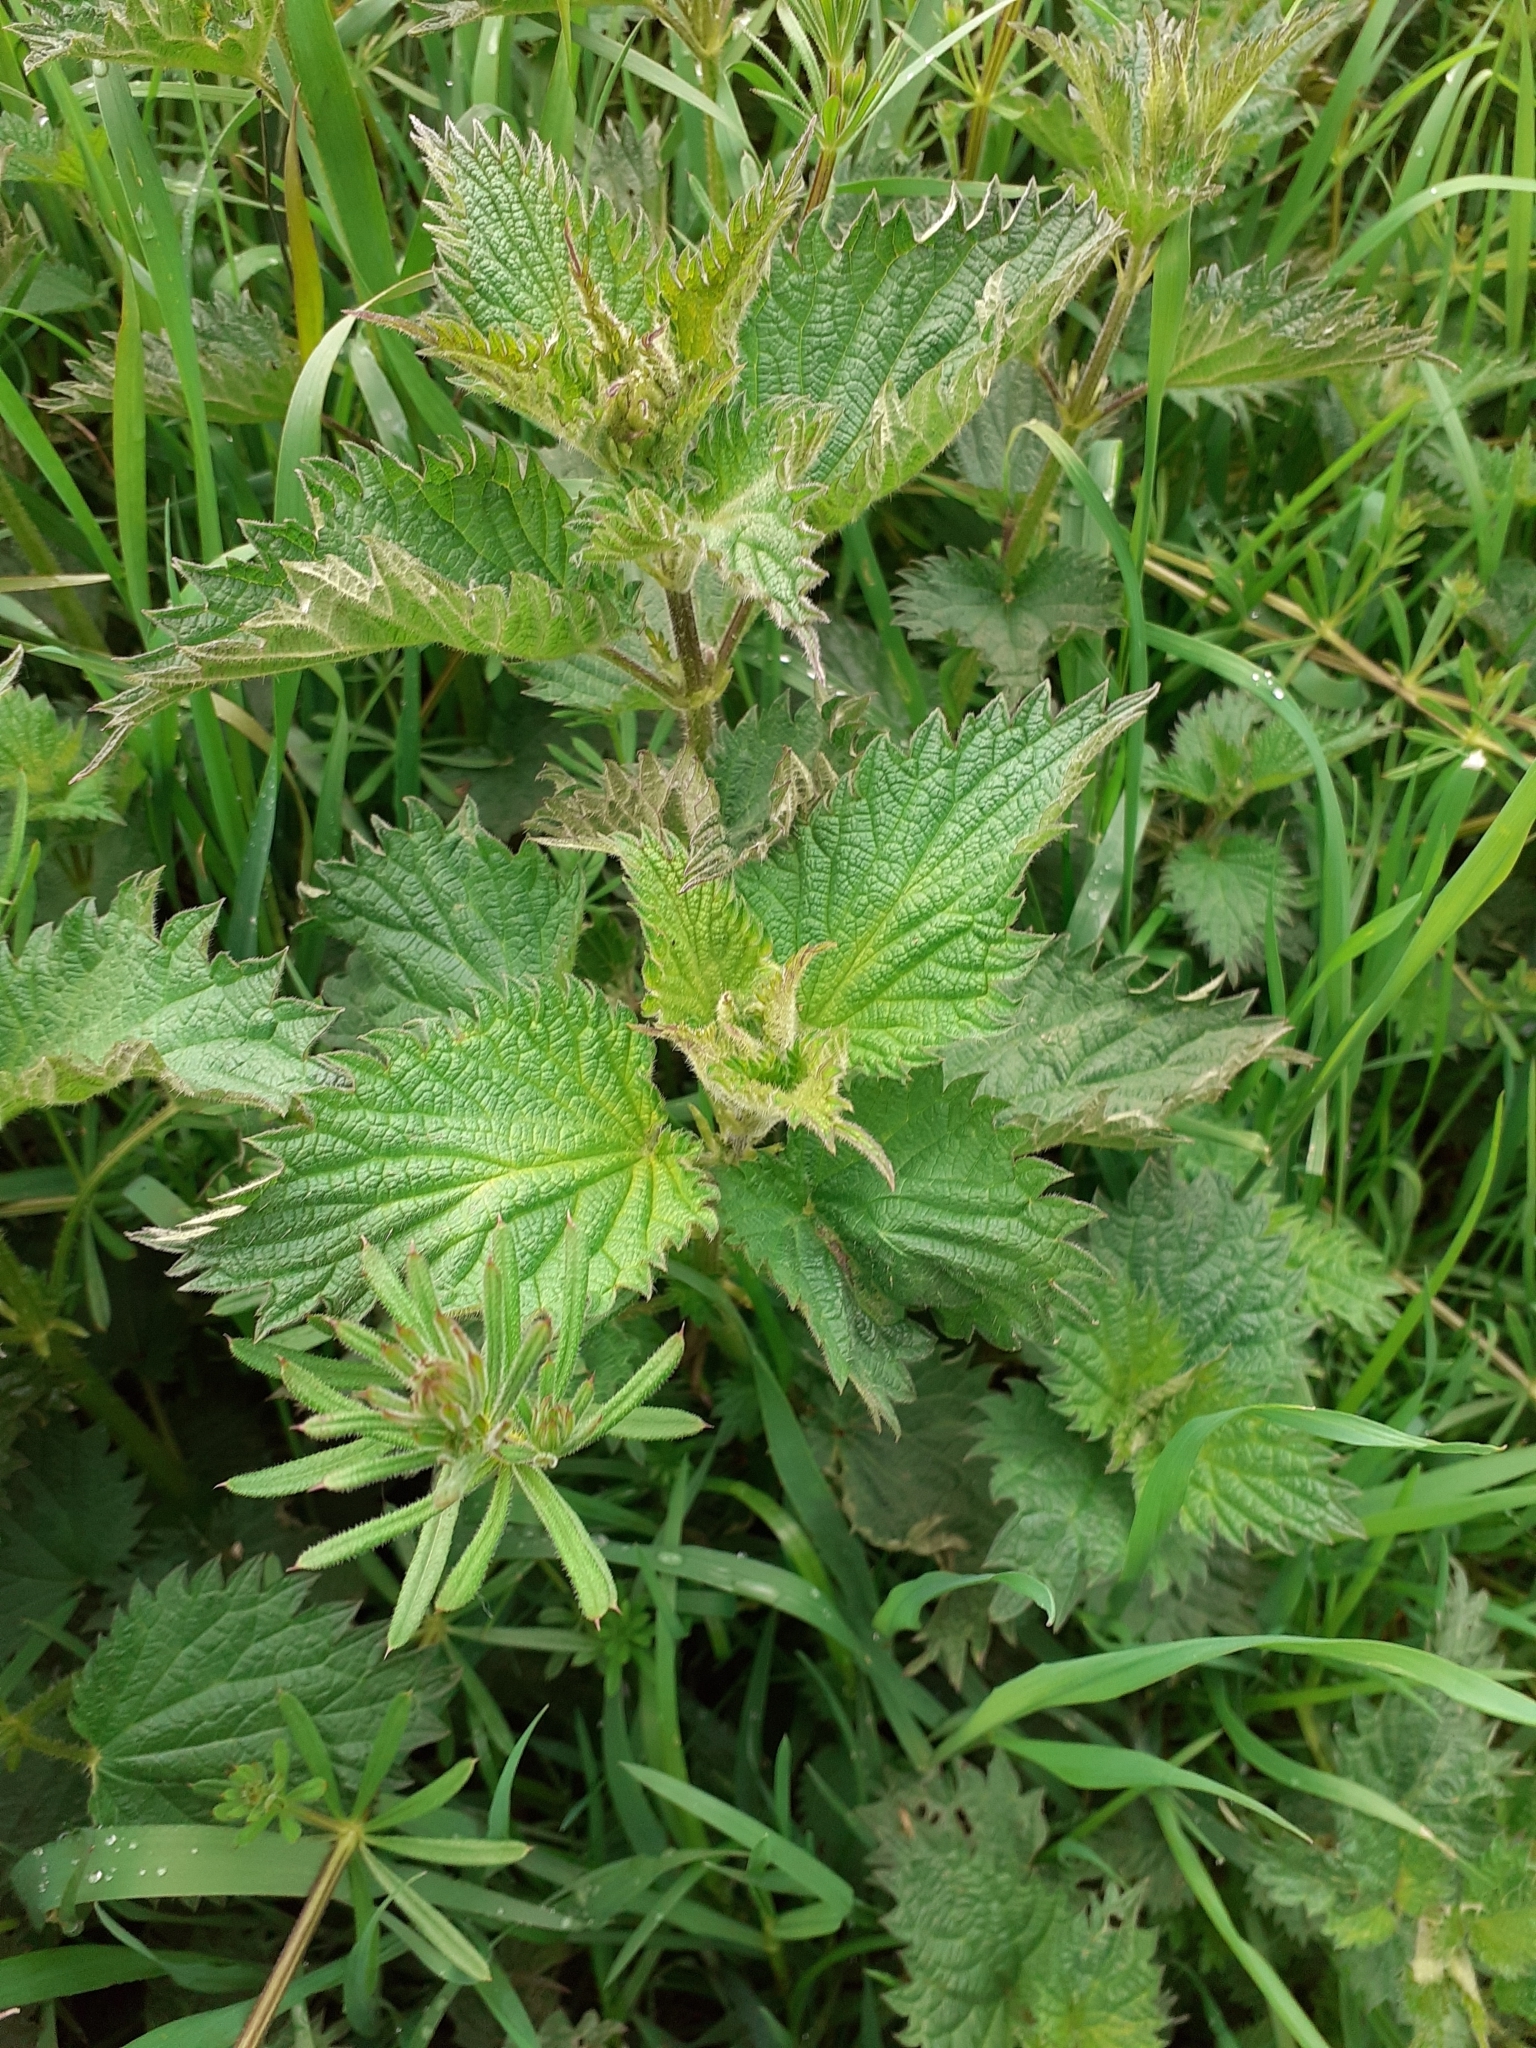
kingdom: Plantae
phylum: Tracheophyta
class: Magnoliopsida
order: Rosales
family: Urticaceae
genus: Urtica
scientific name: Urtica dioica
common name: Common nettle
